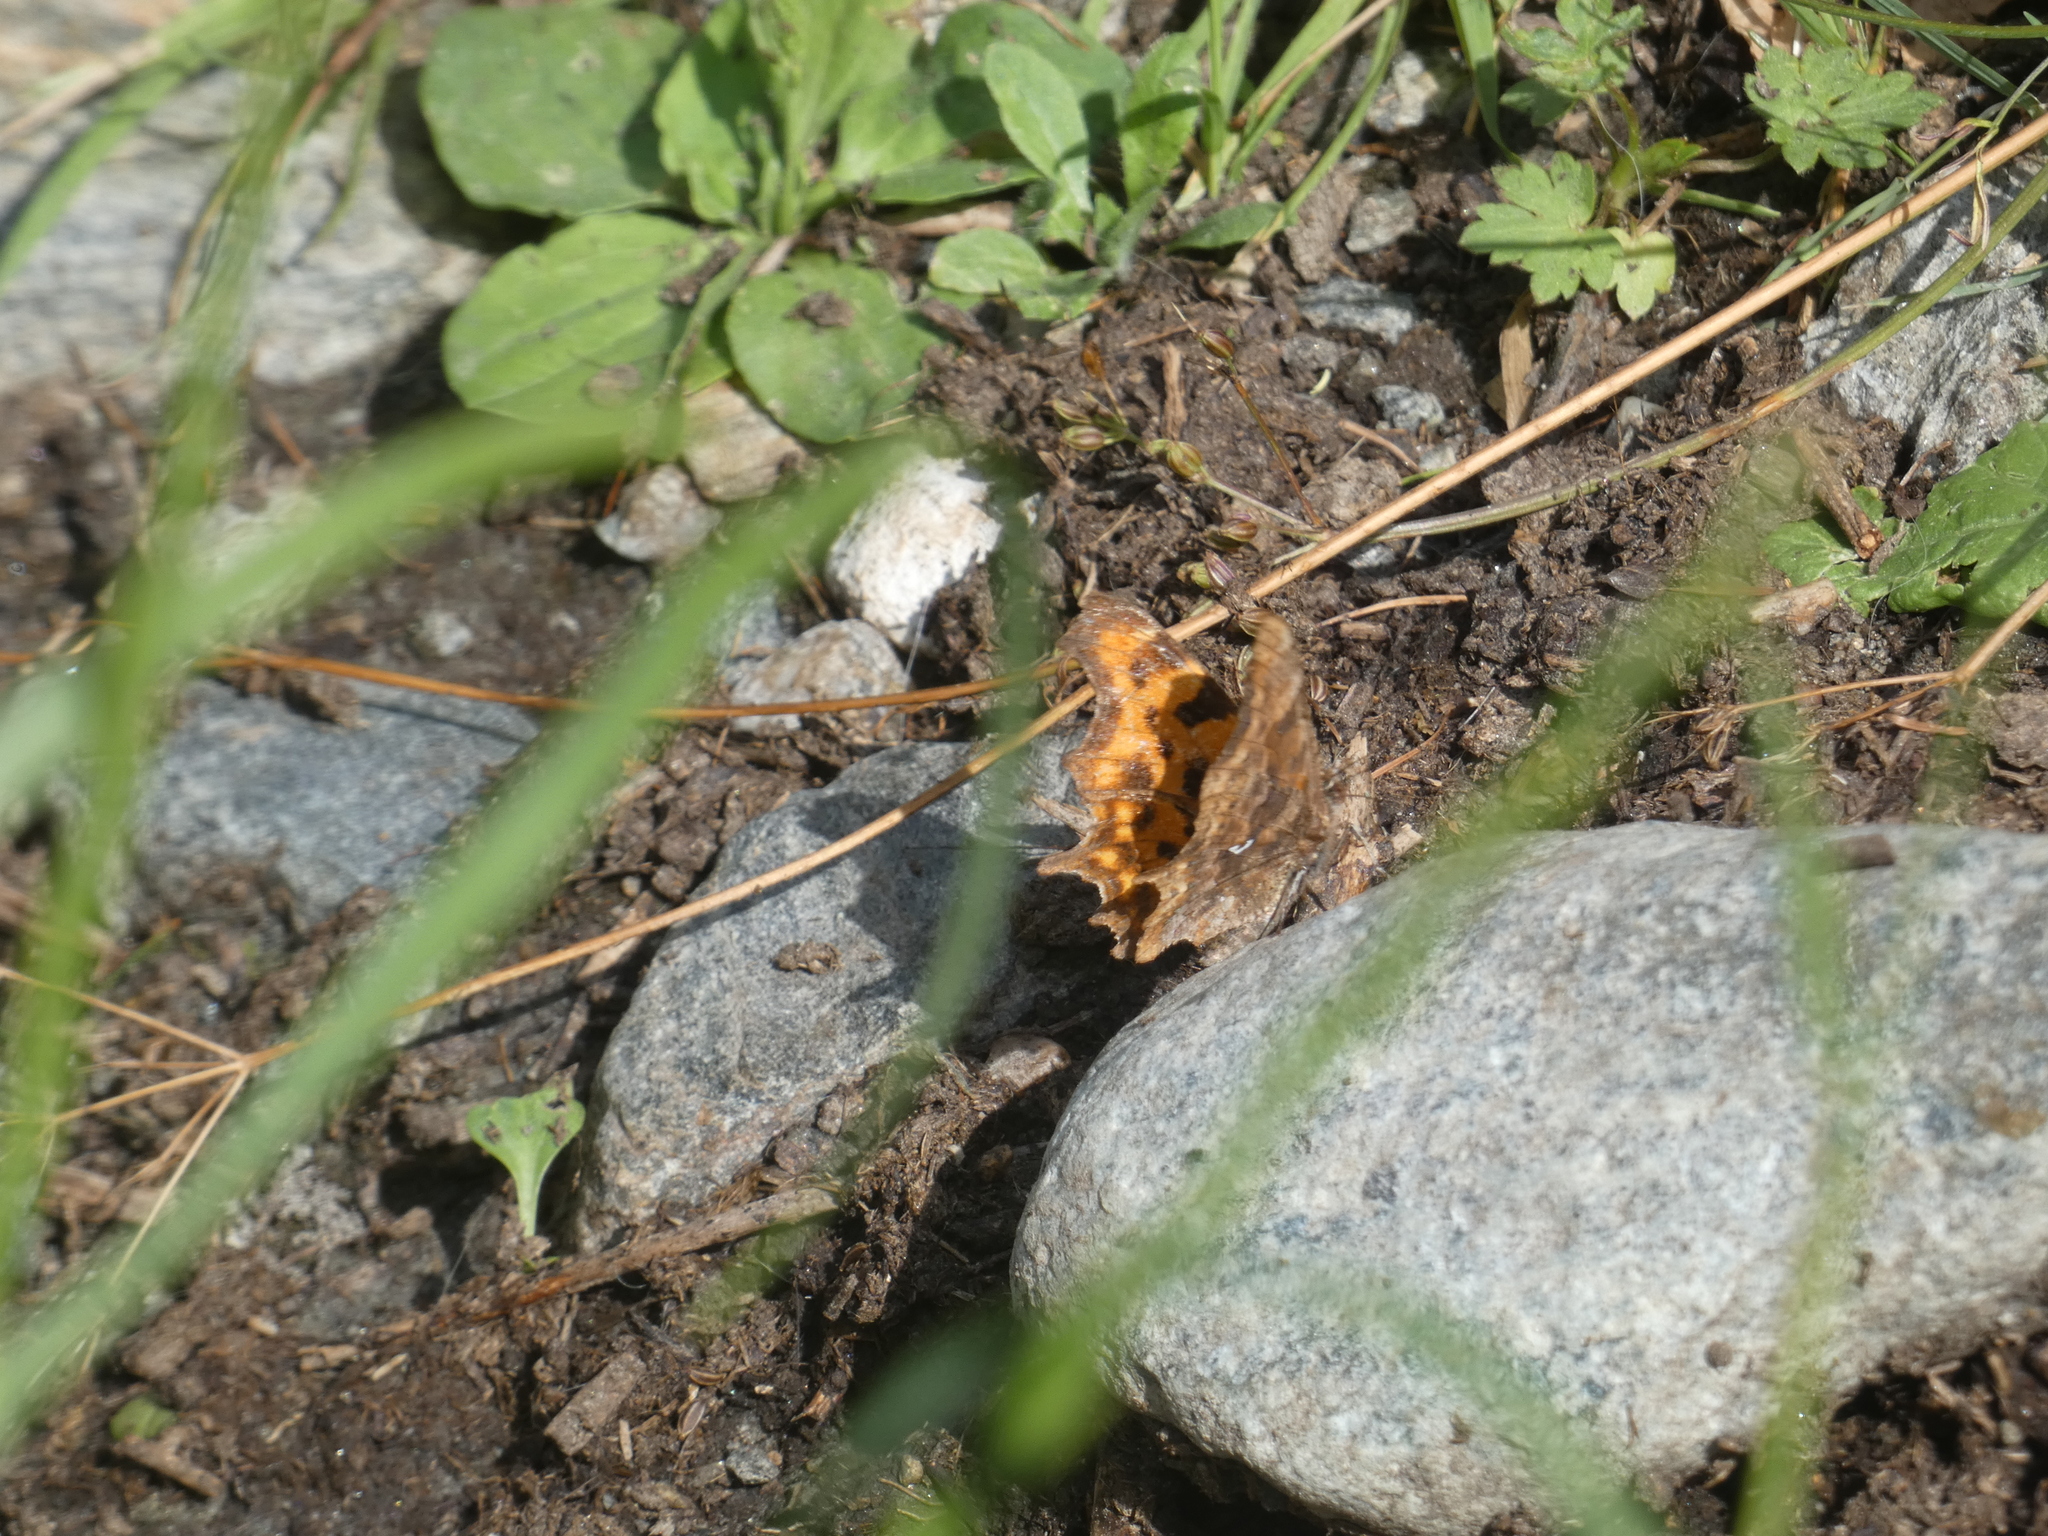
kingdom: Animalia
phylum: Arthropoda
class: Insecta
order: Lepidoptera
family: Nymphalidae
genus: Polygonia
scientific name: Polygonia c-album
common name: Comma
